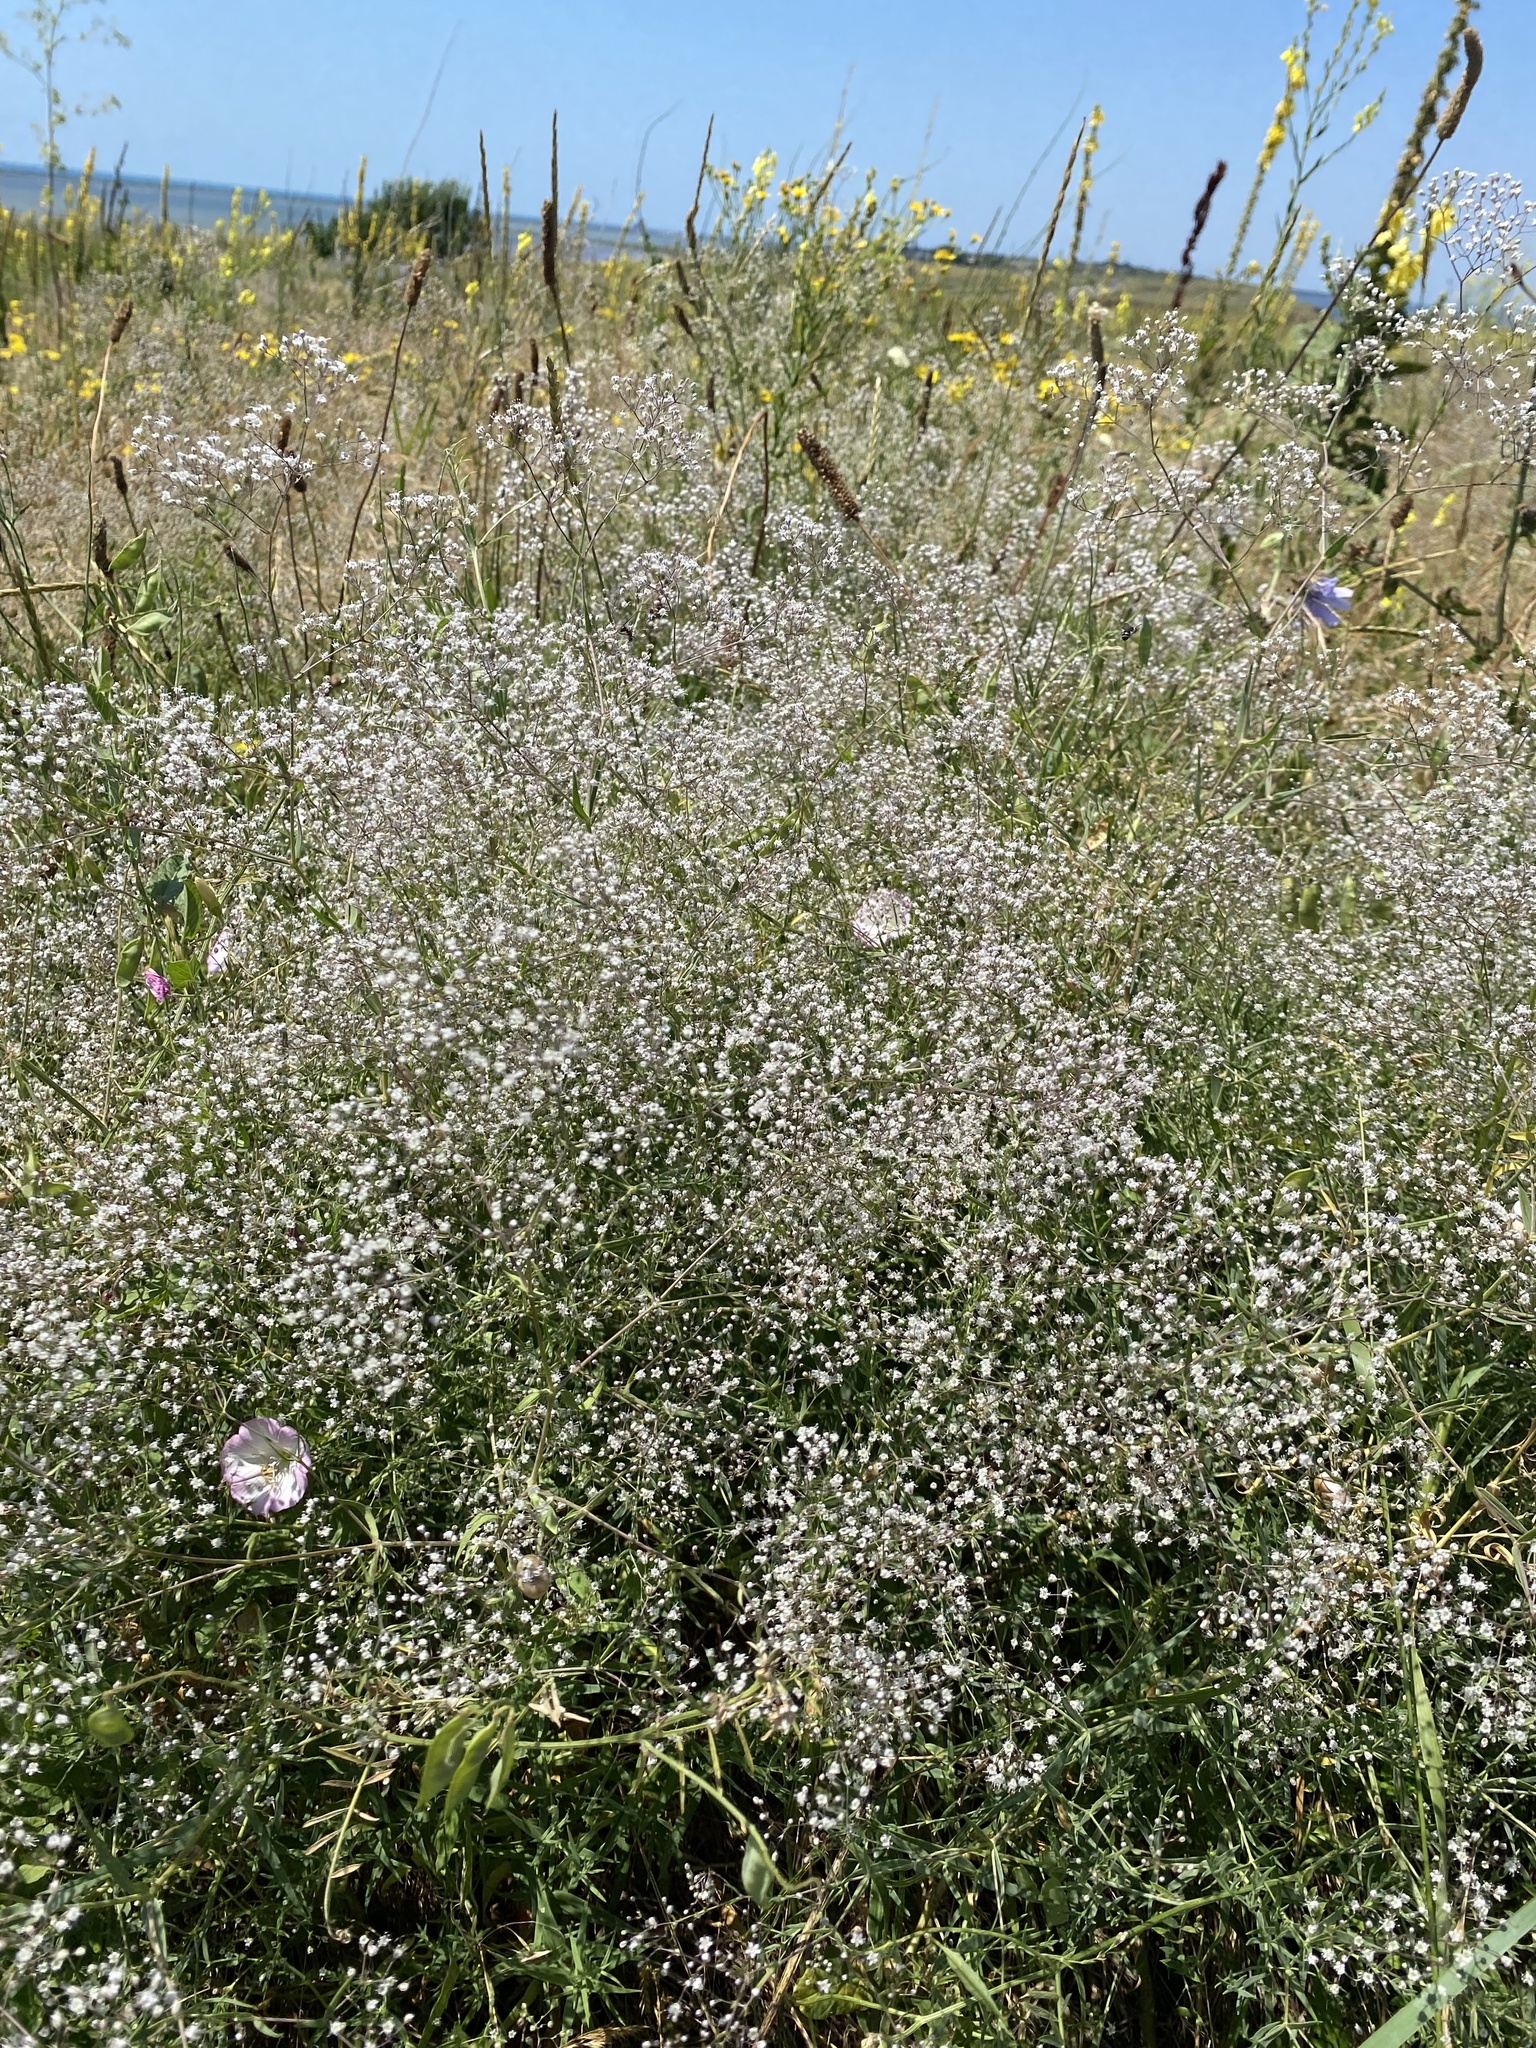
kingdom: Plantae
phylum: Tracheophyta
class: Magnoliopsida
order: Caryophyllales
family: Caryophyllaceae
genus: Gypsophila
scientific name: Gypsophila paniculata
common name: Baby's-breath
